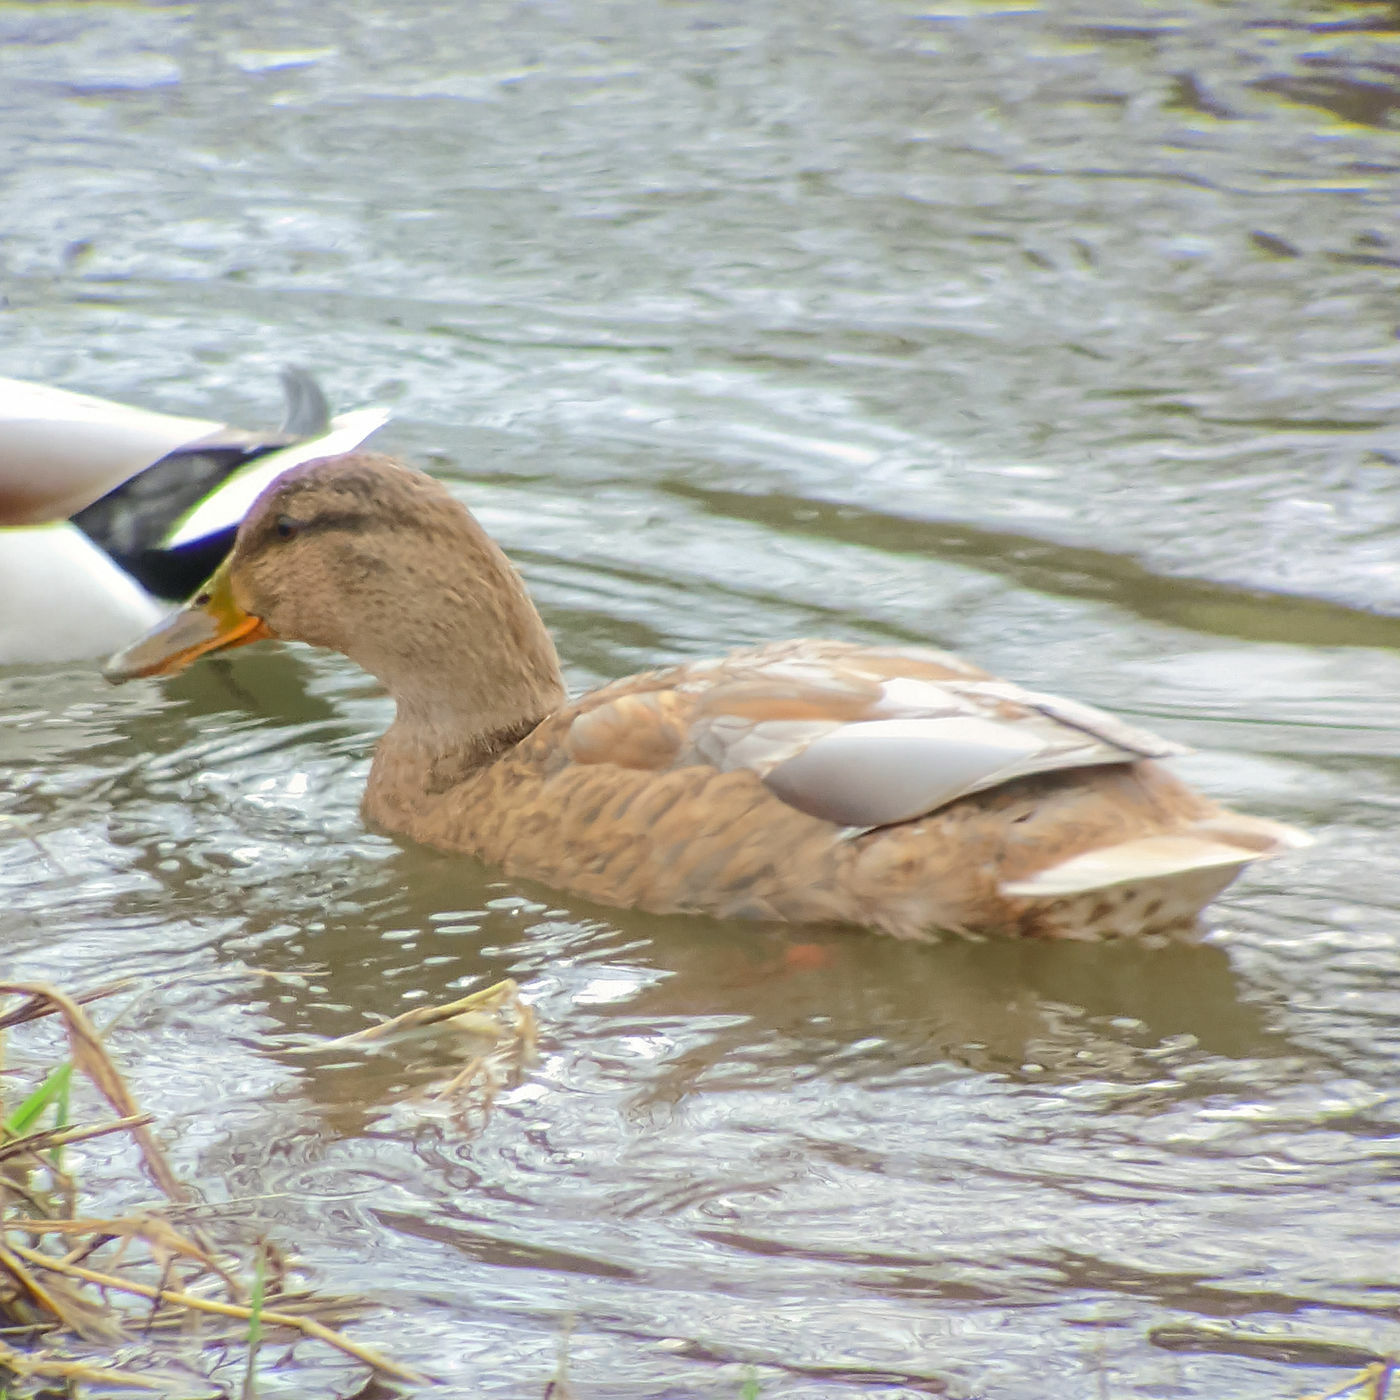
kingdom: Animalia
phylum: Chordata
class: Aves
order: Anseriformes
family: Anatidae
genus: Anas
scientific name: Anas platyrhynchos
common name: Mallard
